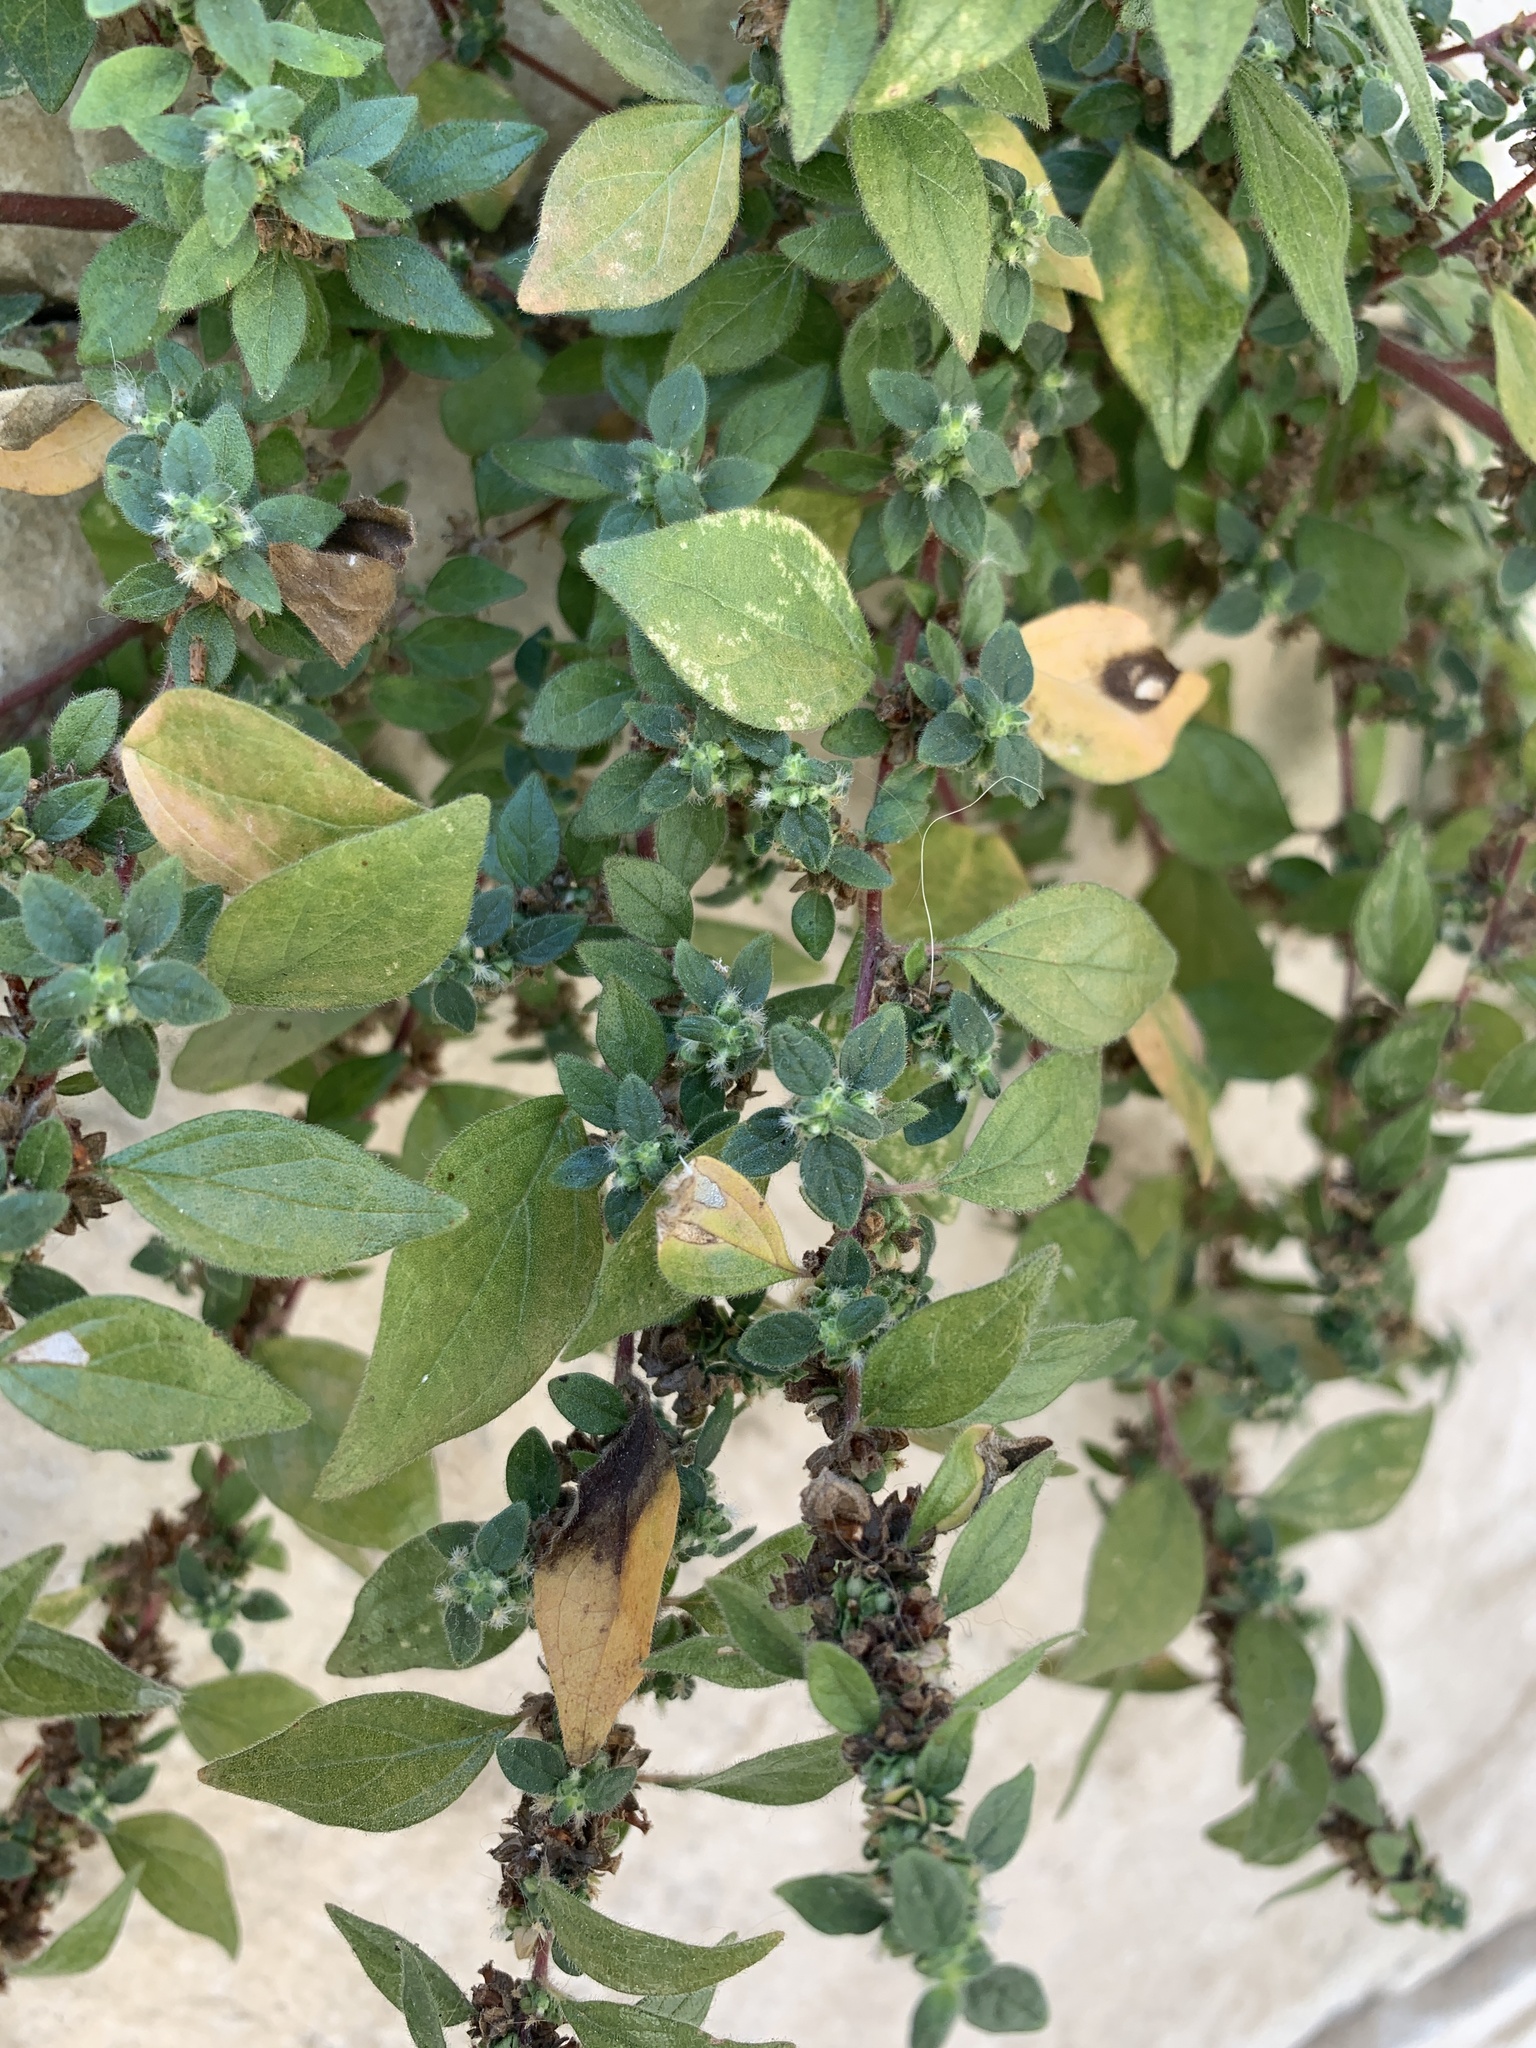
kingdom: Plantae
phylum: Tracheophyta
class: Magnoliopsida
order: Rosales
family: Urticaceae
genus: Parietaria
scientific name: Parietaria judaica
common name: Pellitory-of-the-wall
